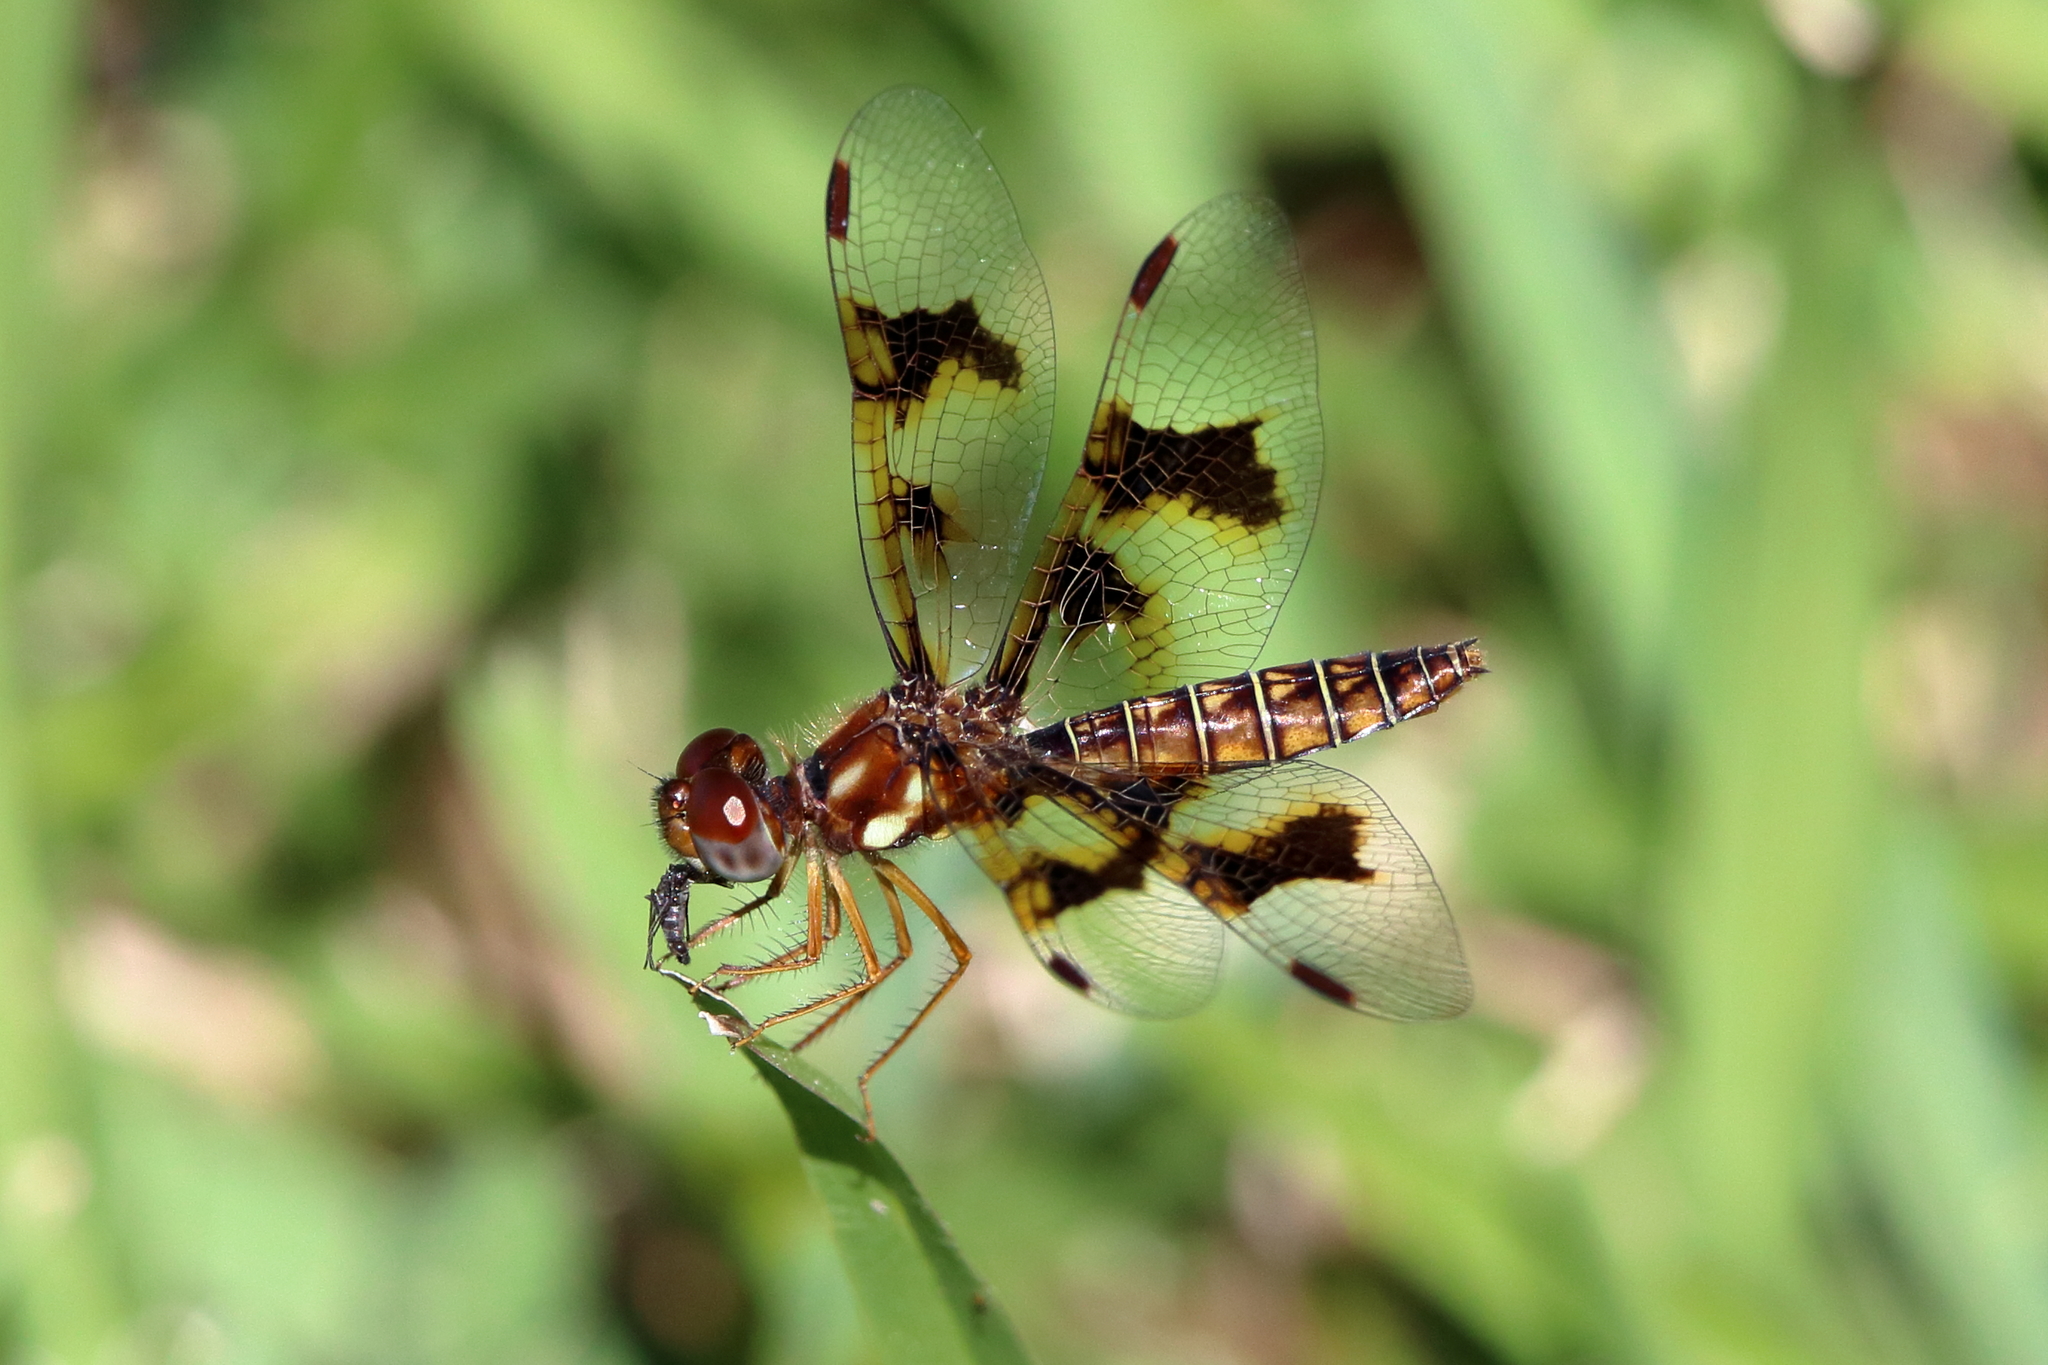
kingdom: Animalia
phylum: Arthropoda
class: Insecta
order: Odonata
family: Libellulidae
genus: Perithemis
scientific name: Perithemis tenera
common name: Eastern amberwing
